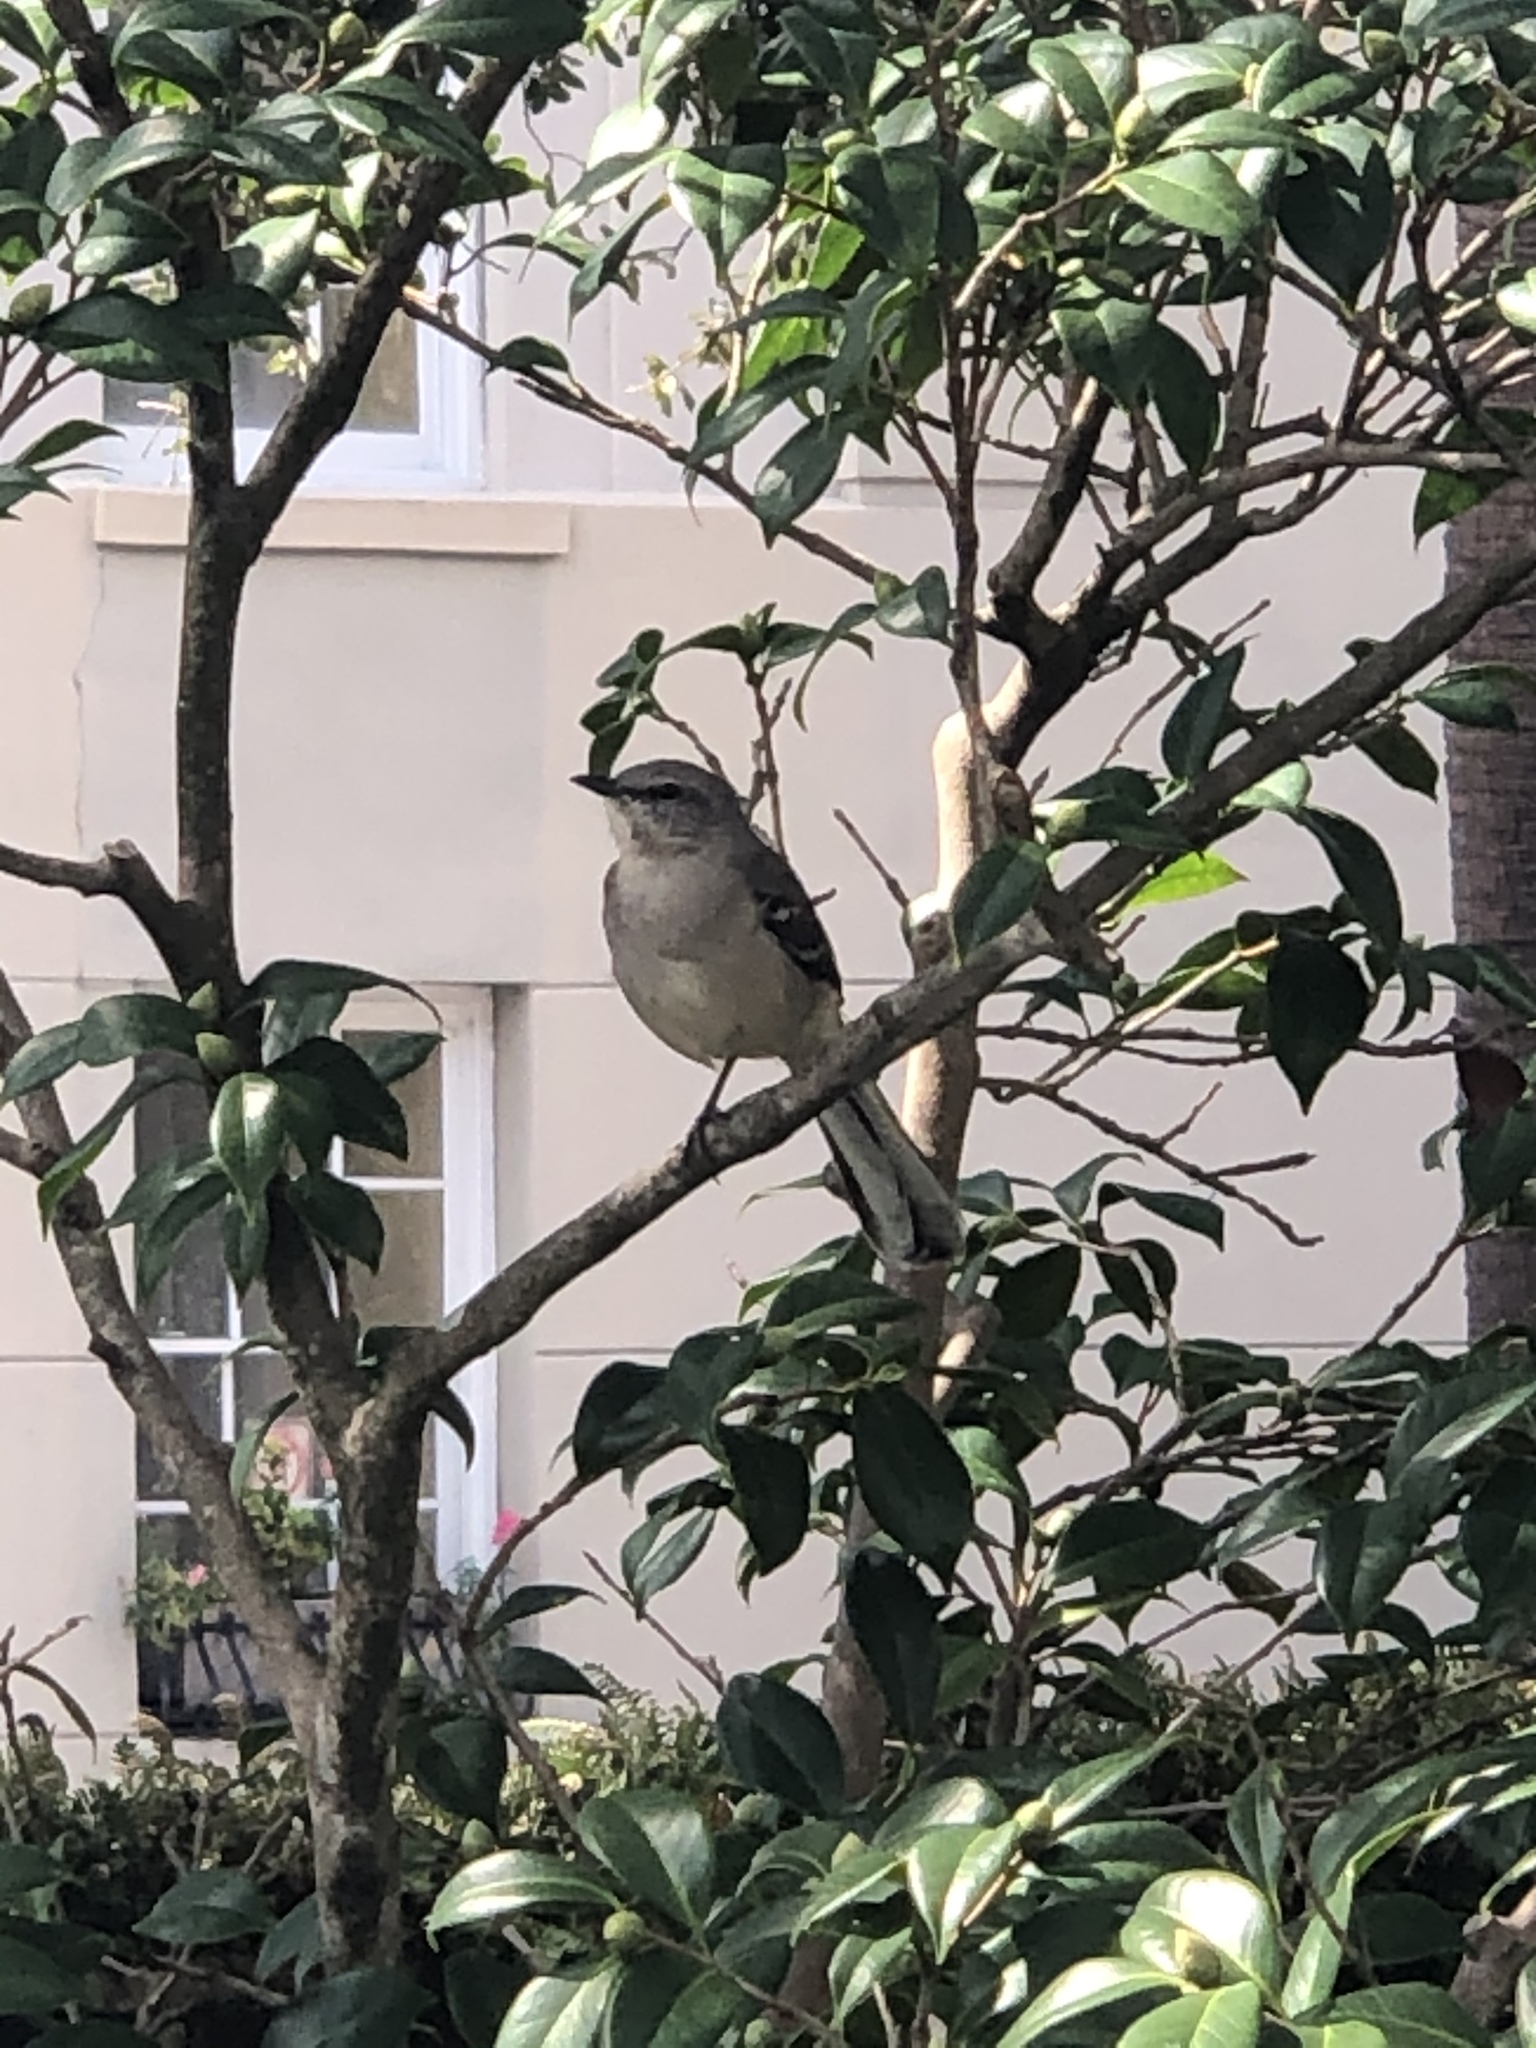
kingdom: Animalia
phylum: Chordata
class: Aves
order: Passeriformes
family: Mimidae
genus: Mimus
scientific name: Mimus polyglottos
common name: Northern mockingbird
